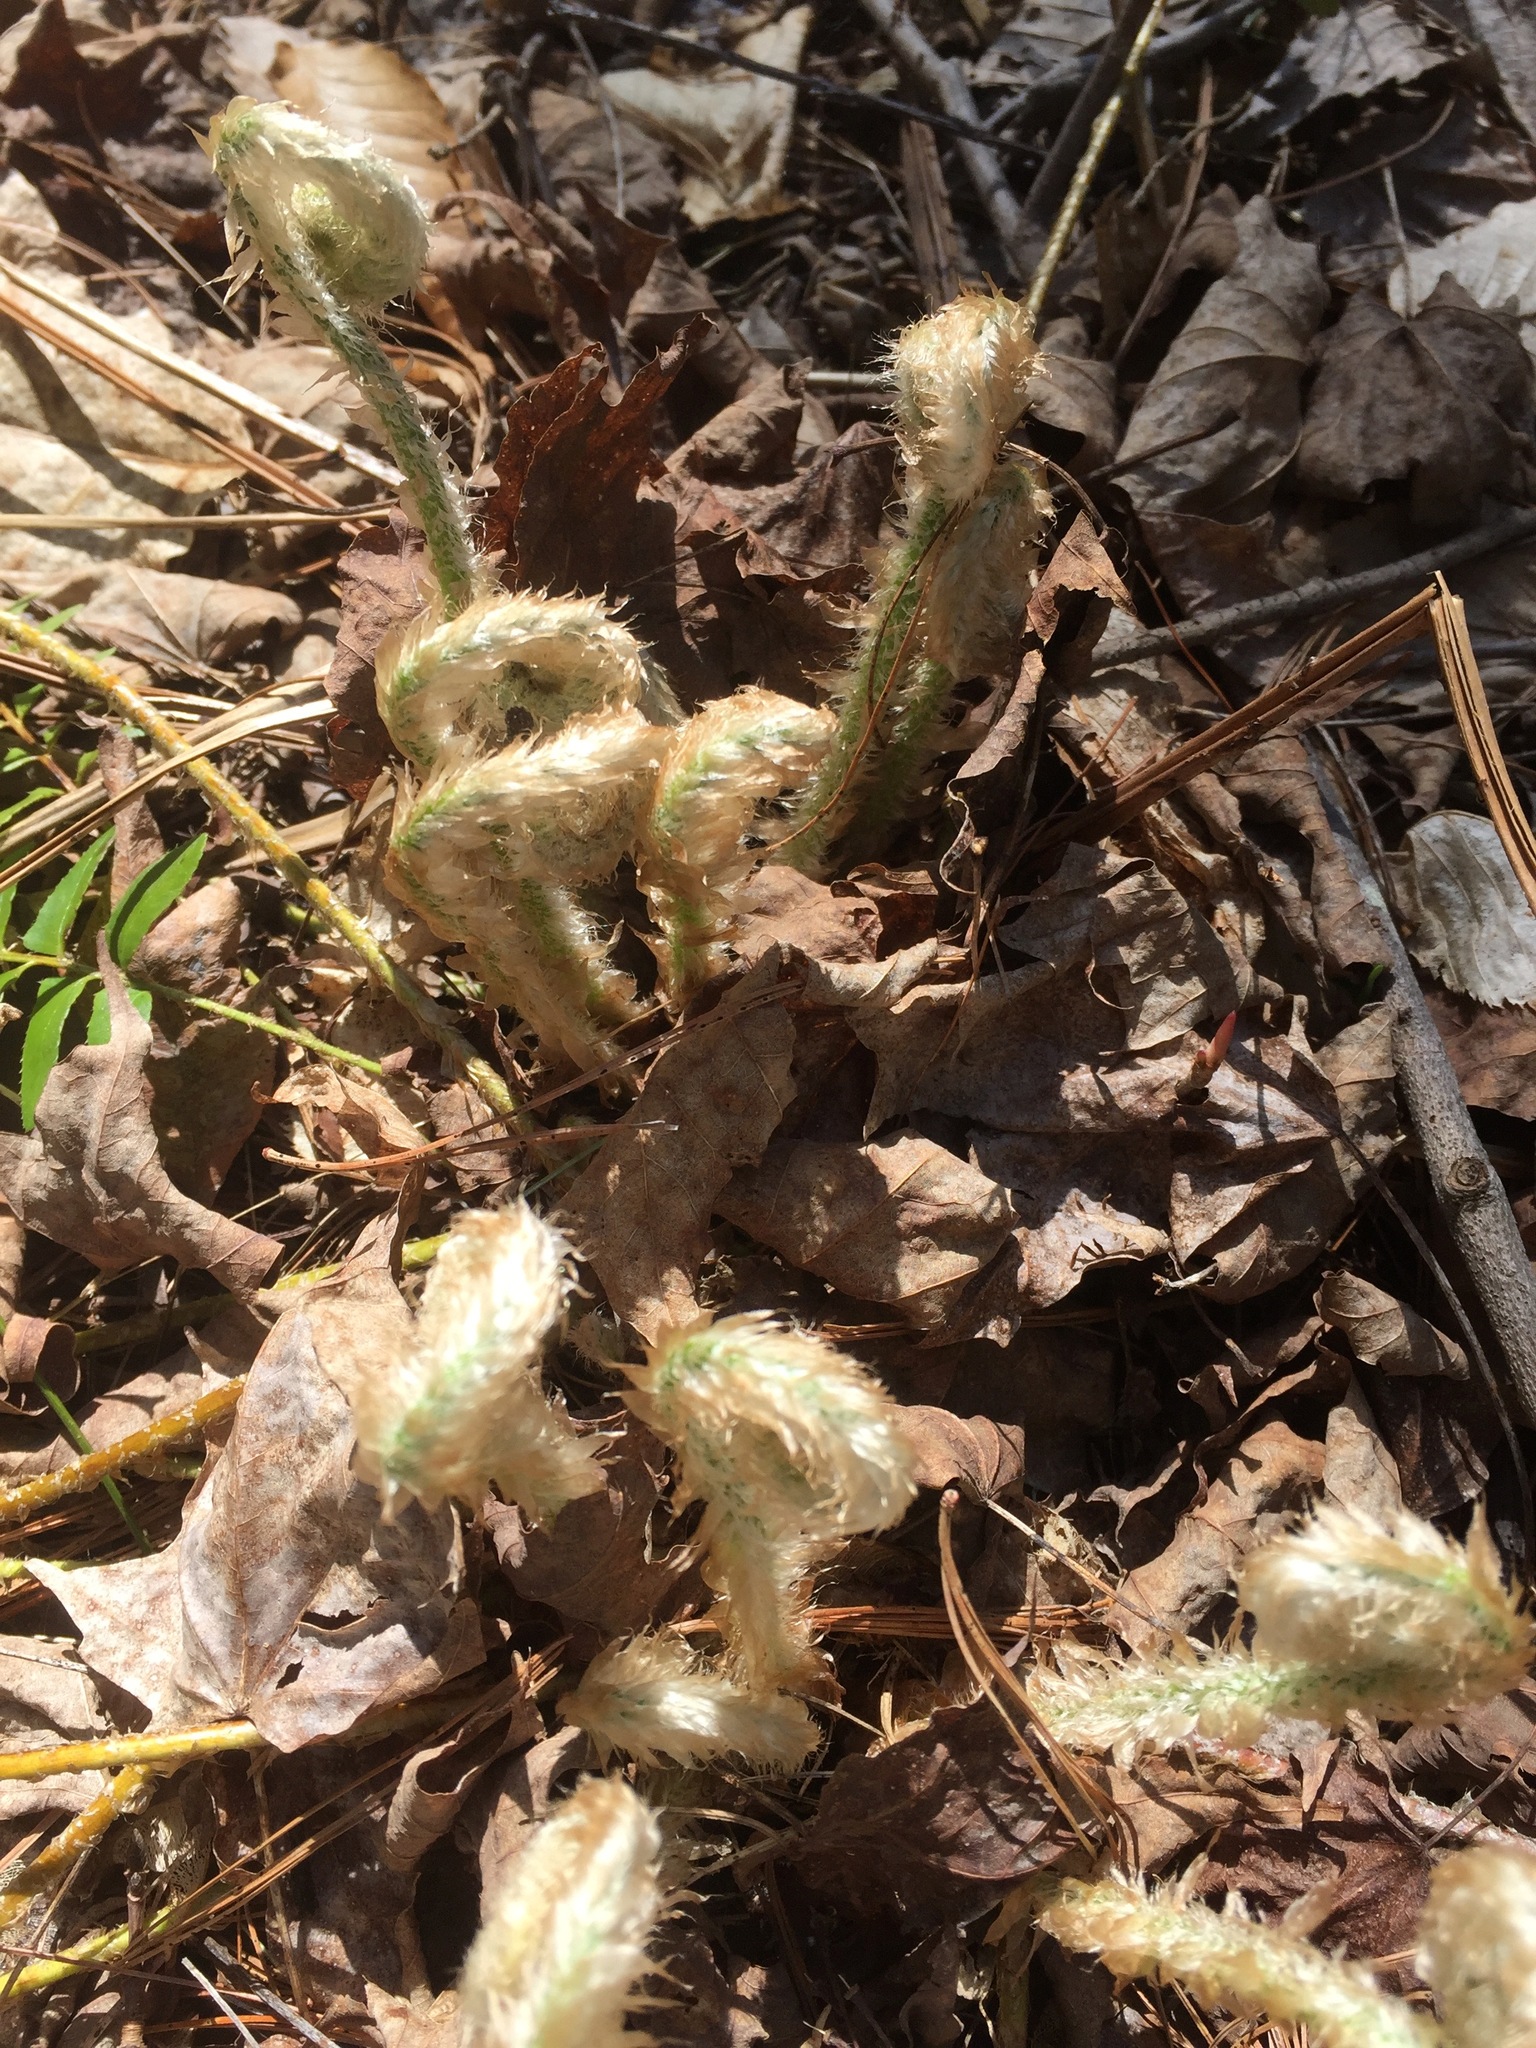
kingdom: Plantae
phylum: Tracheophyta
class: Polypodiopsida
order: Polypodiales
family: Dryopteridaceae
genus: Polystichum
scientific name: Polystichum acrostichoides
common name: Christmas fern
